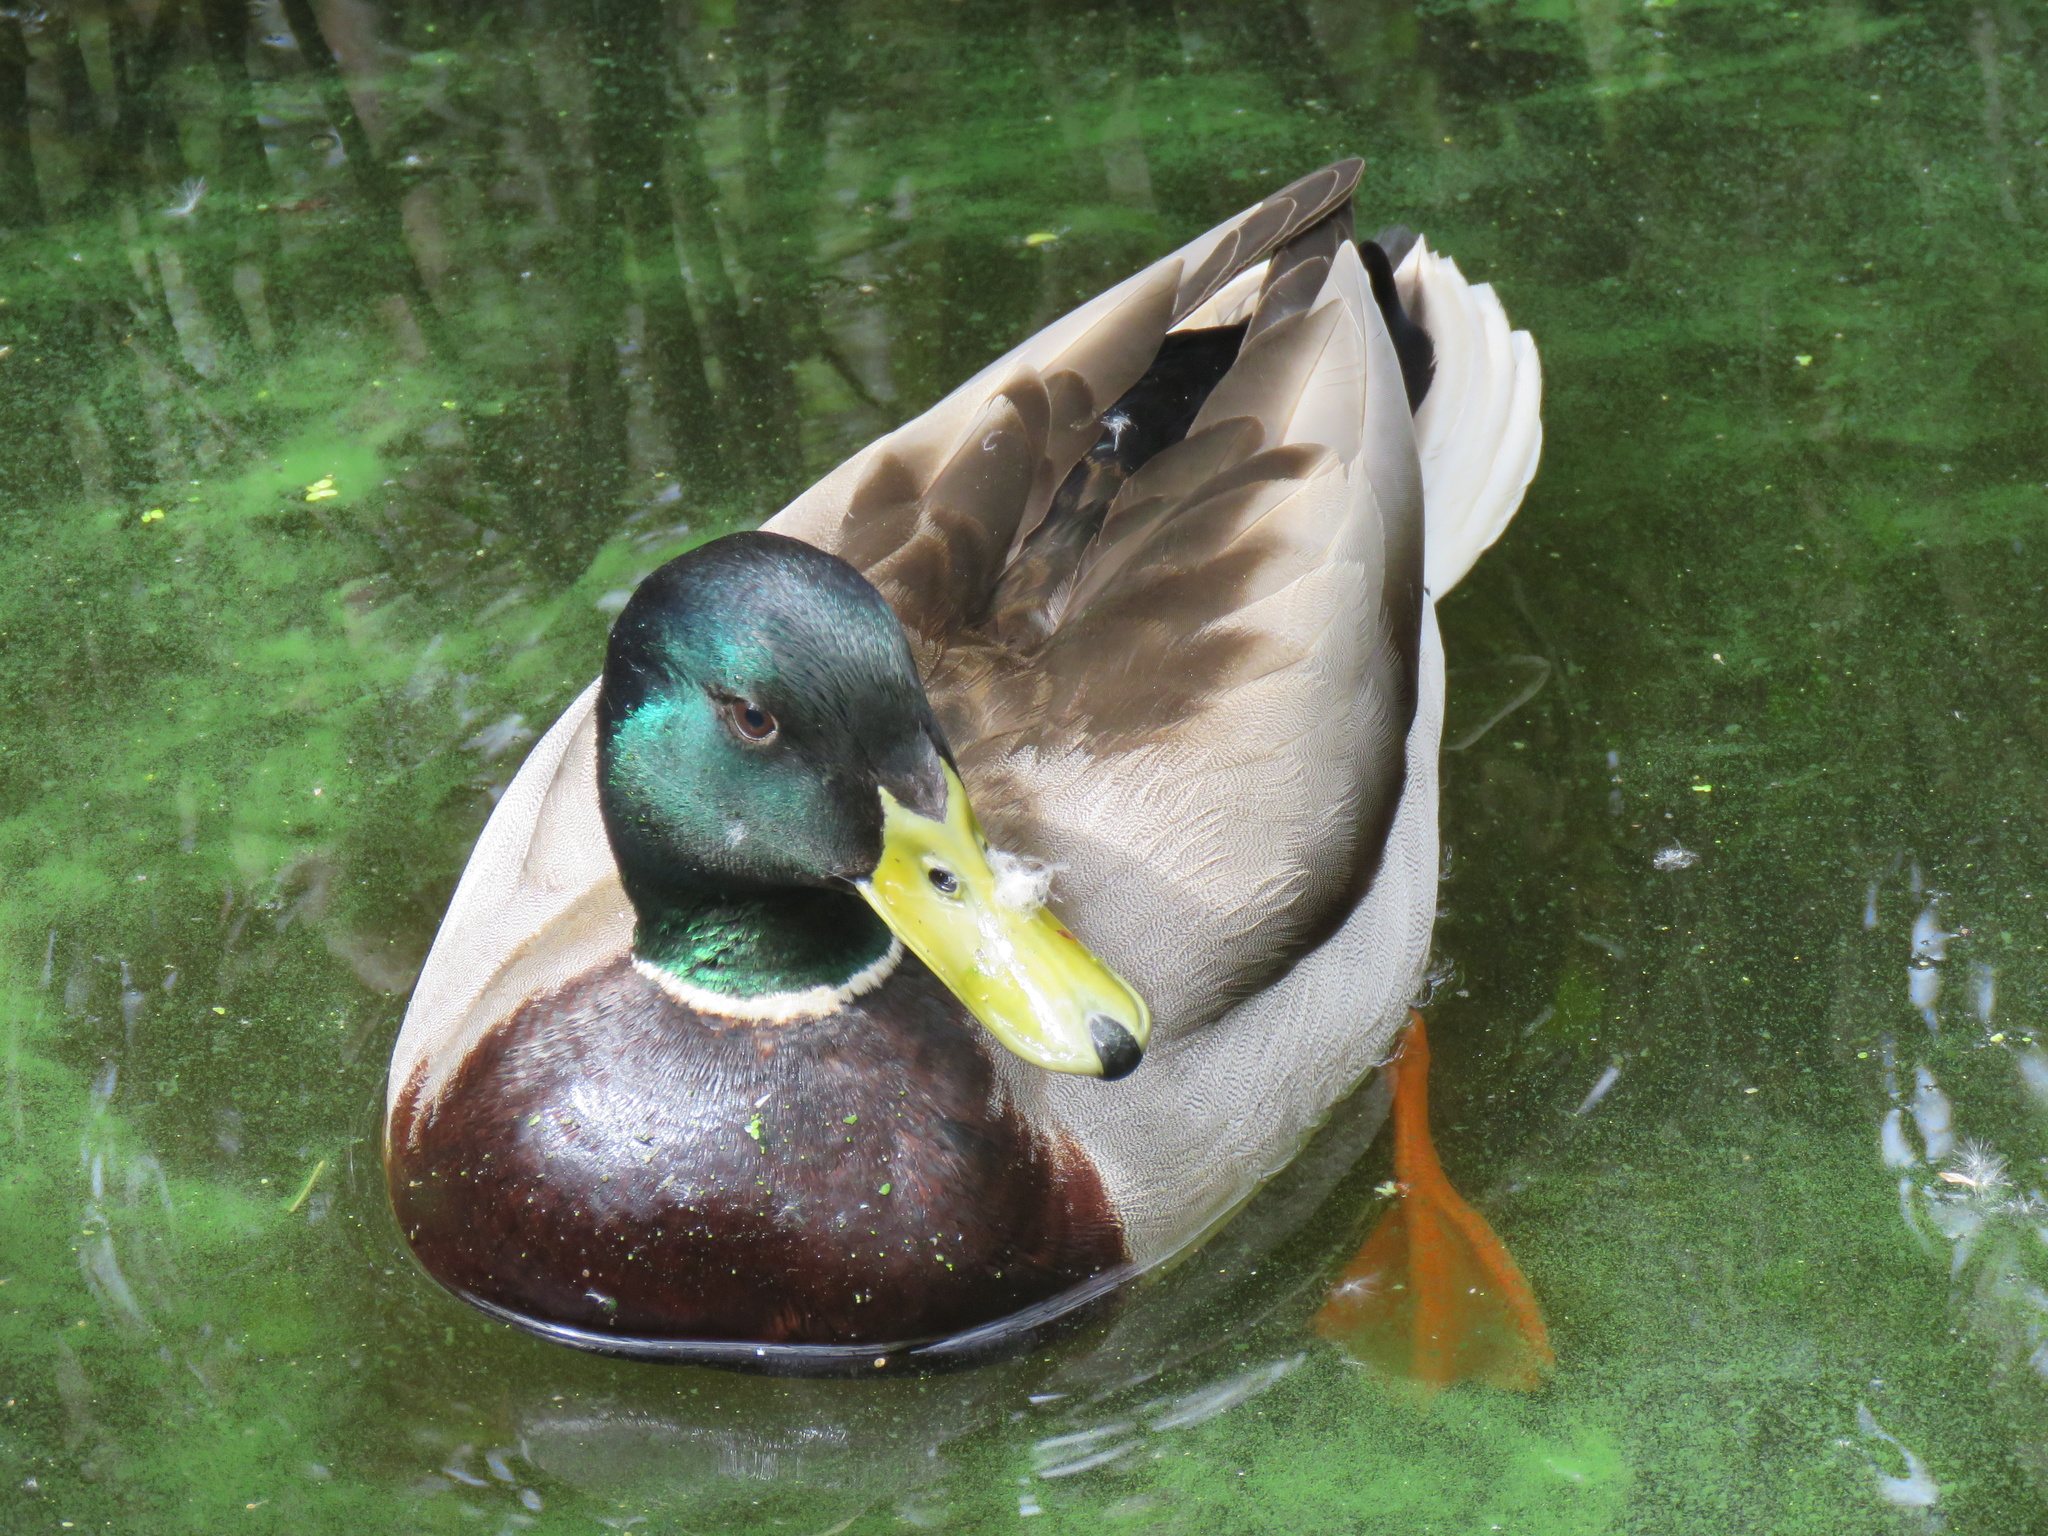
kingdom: Animalia
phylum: Chordata
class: Aves
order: Anseriformes
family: Anatidae
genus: Anas
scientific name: Anas platyrhynchos
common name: Mallard
